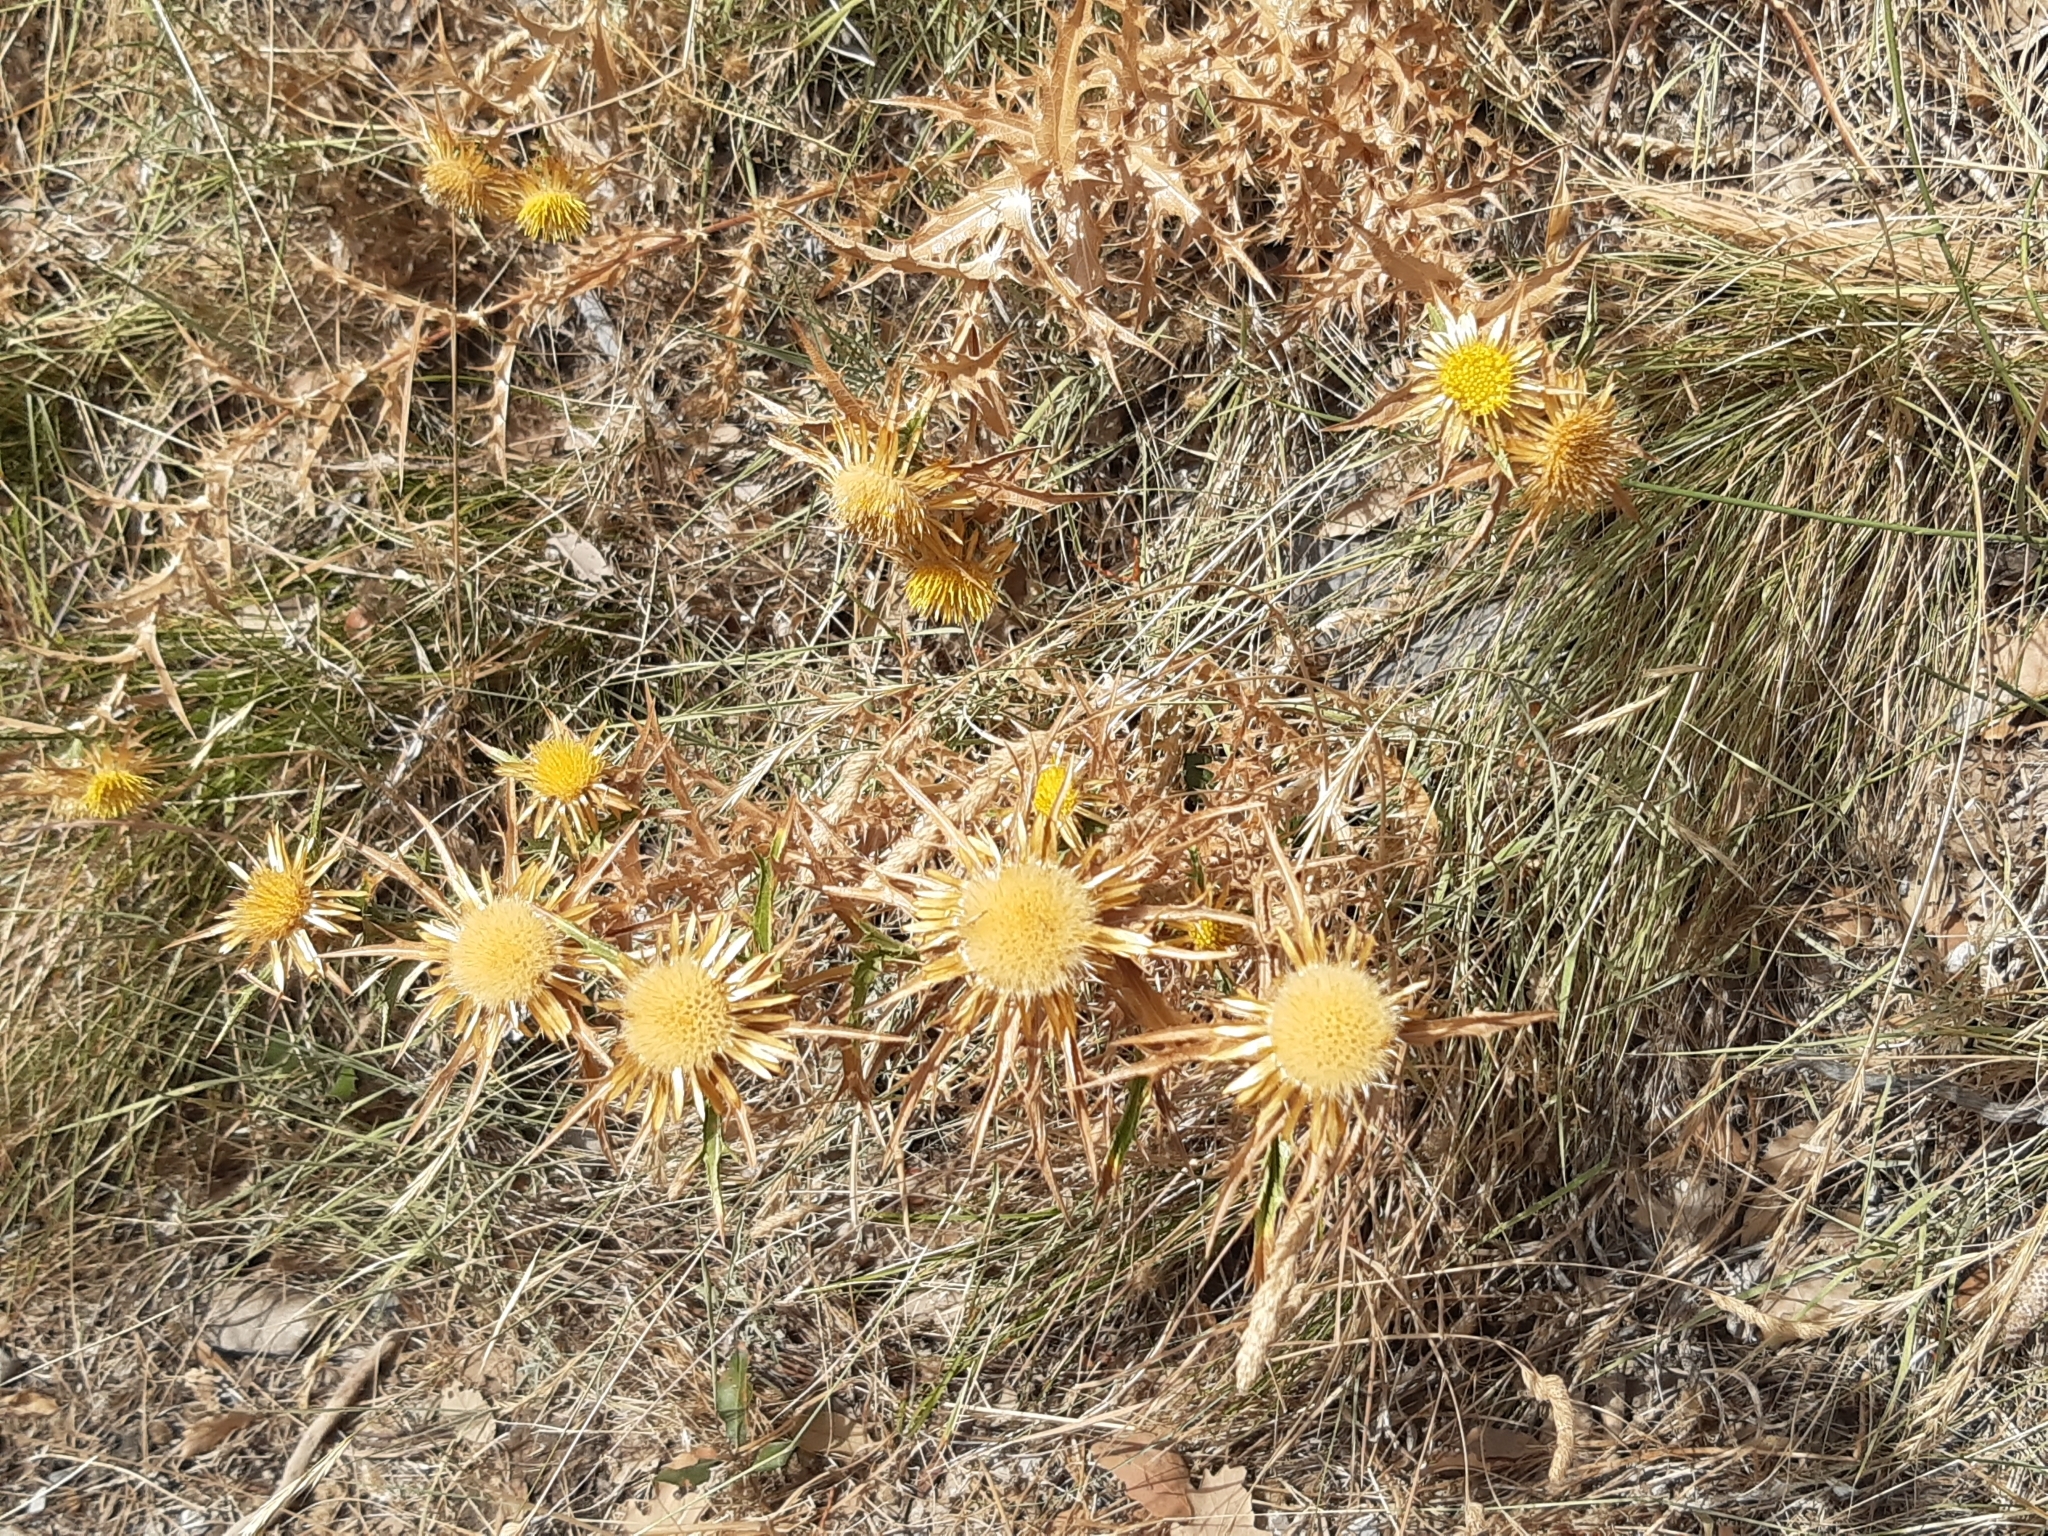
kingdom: Plantae
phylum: Tracheophyta
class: Magnoliopsida
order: Asterales
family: Asteraceae
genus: Carlina
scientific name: Carlina corymbosa
